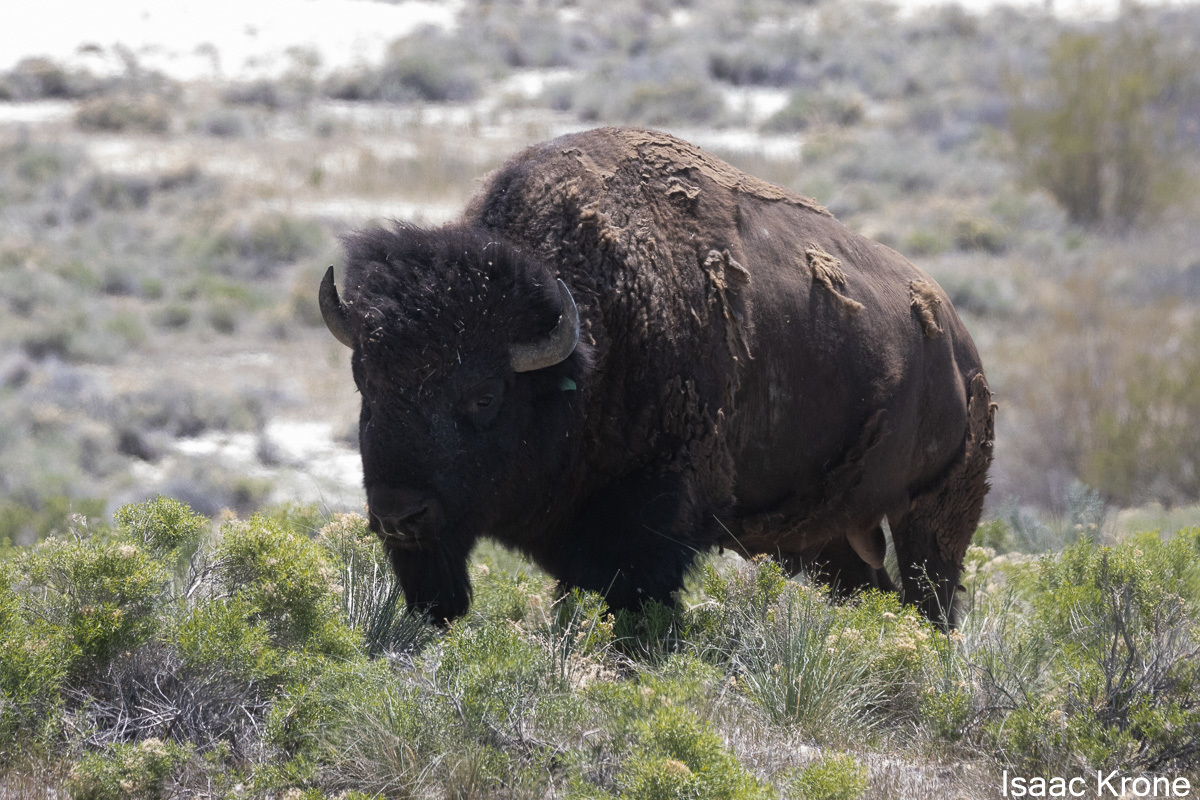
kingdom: Animalia
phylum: Chordata
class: Mammalia
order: Artiodactyla
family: Bovidae
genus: Bison
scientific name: Bison bison
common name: American bison
